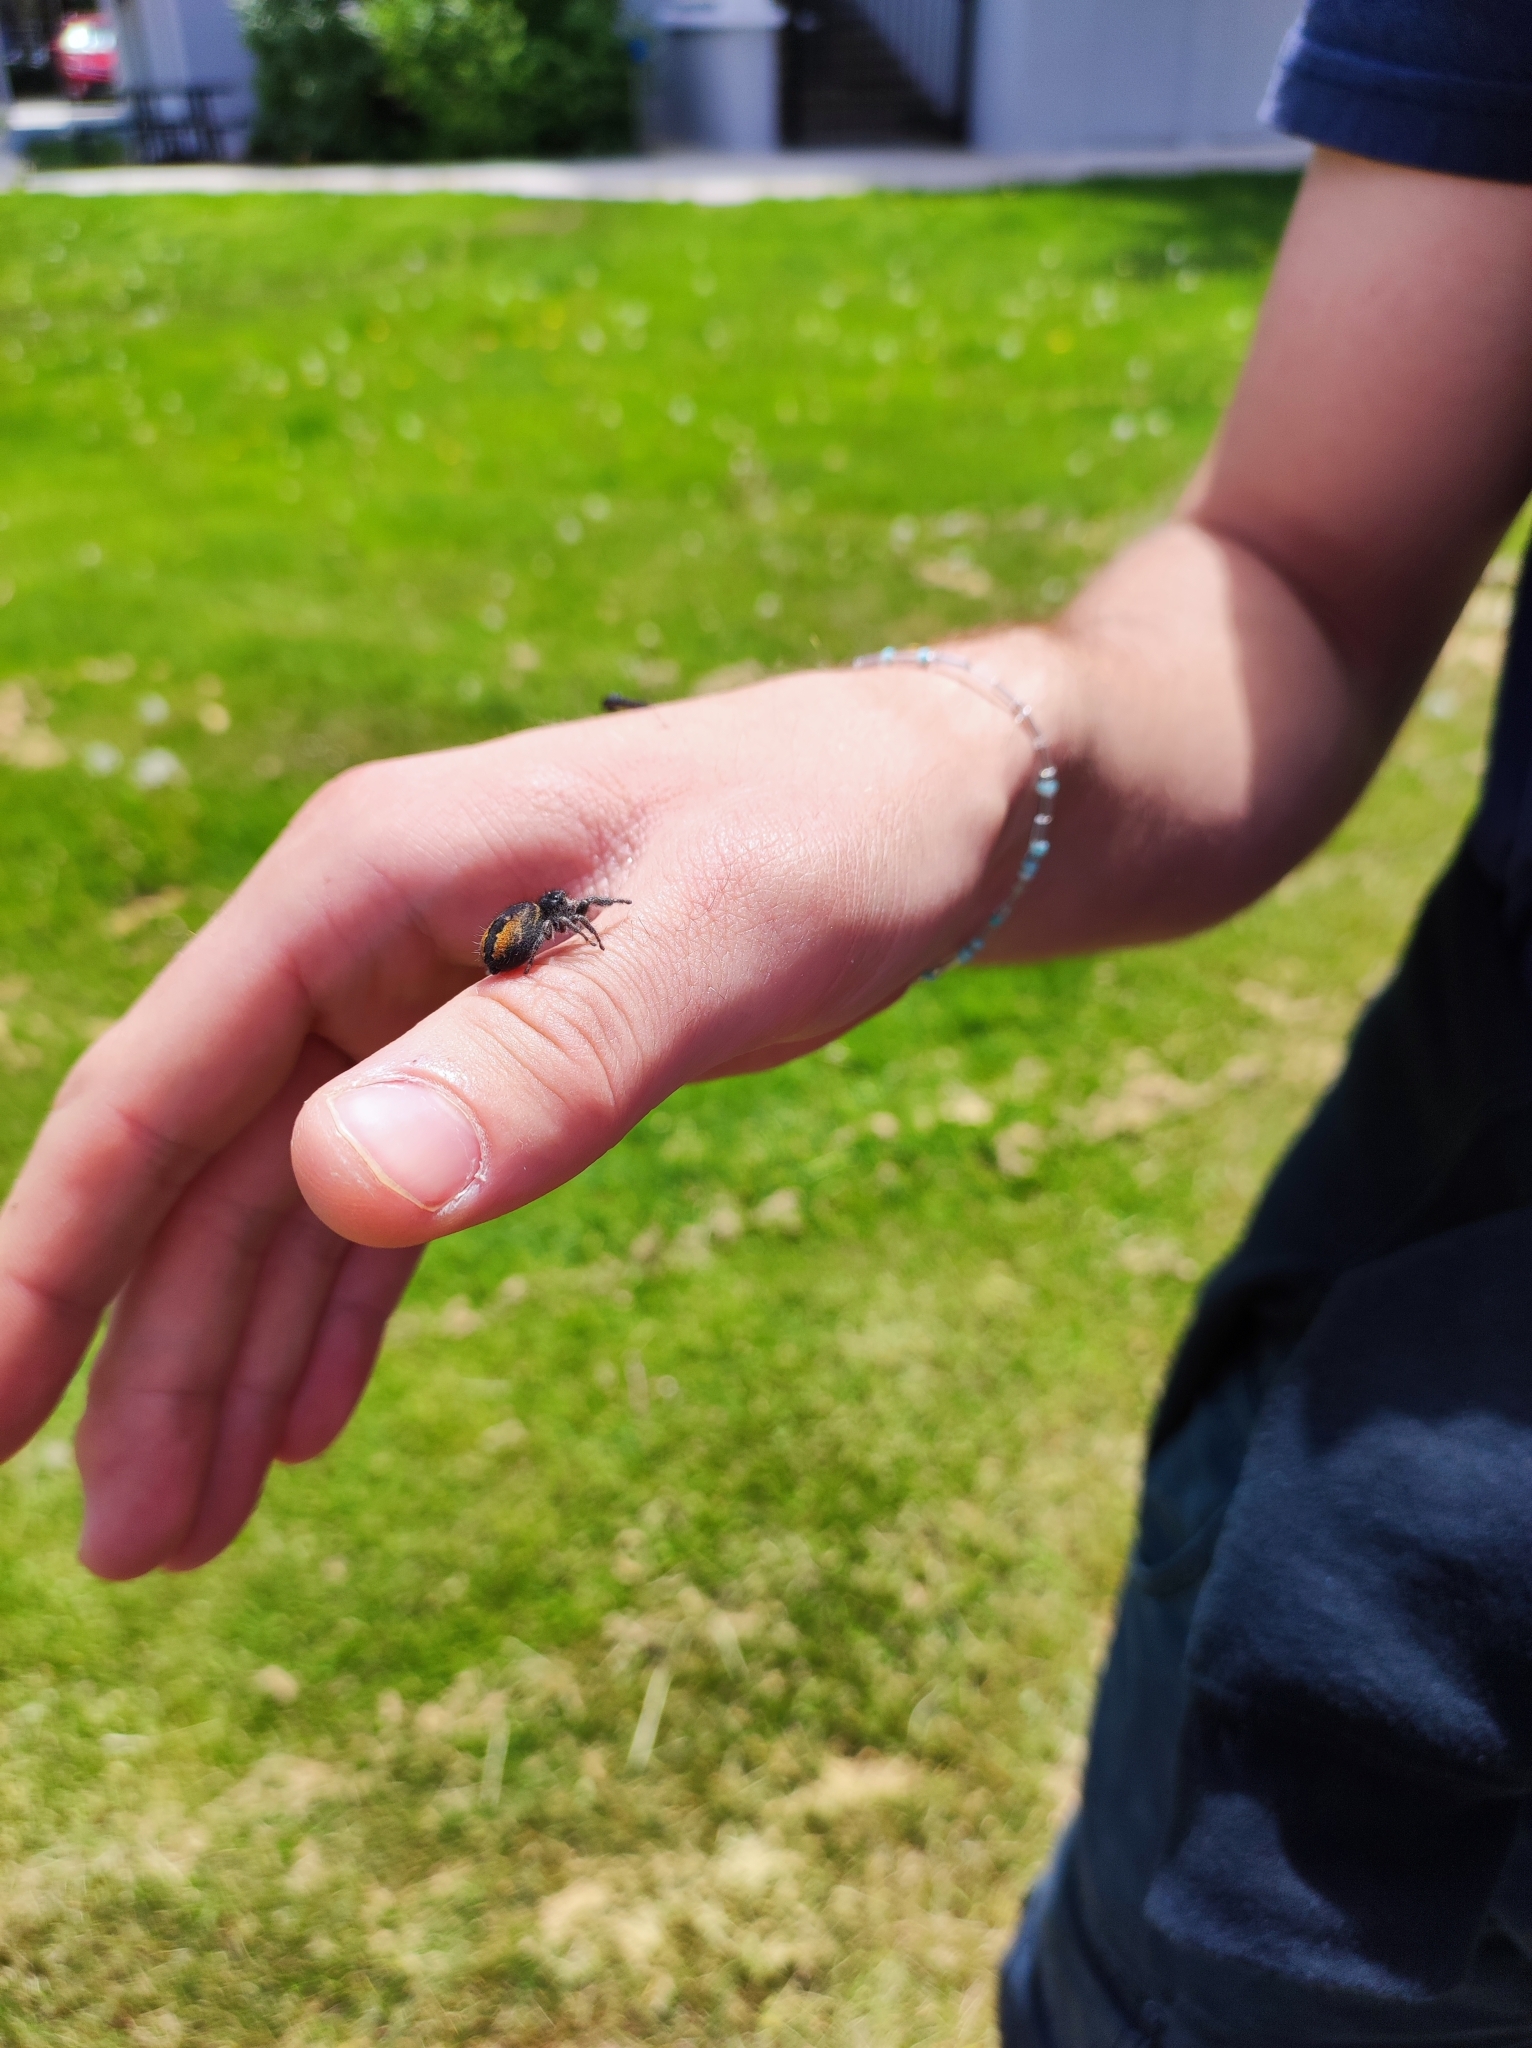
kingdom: Animalia
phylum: Arthropoda
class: Arachnida
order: Araneae
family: Salticidae
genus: Phidippus
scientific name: Phidippus johnsoni
